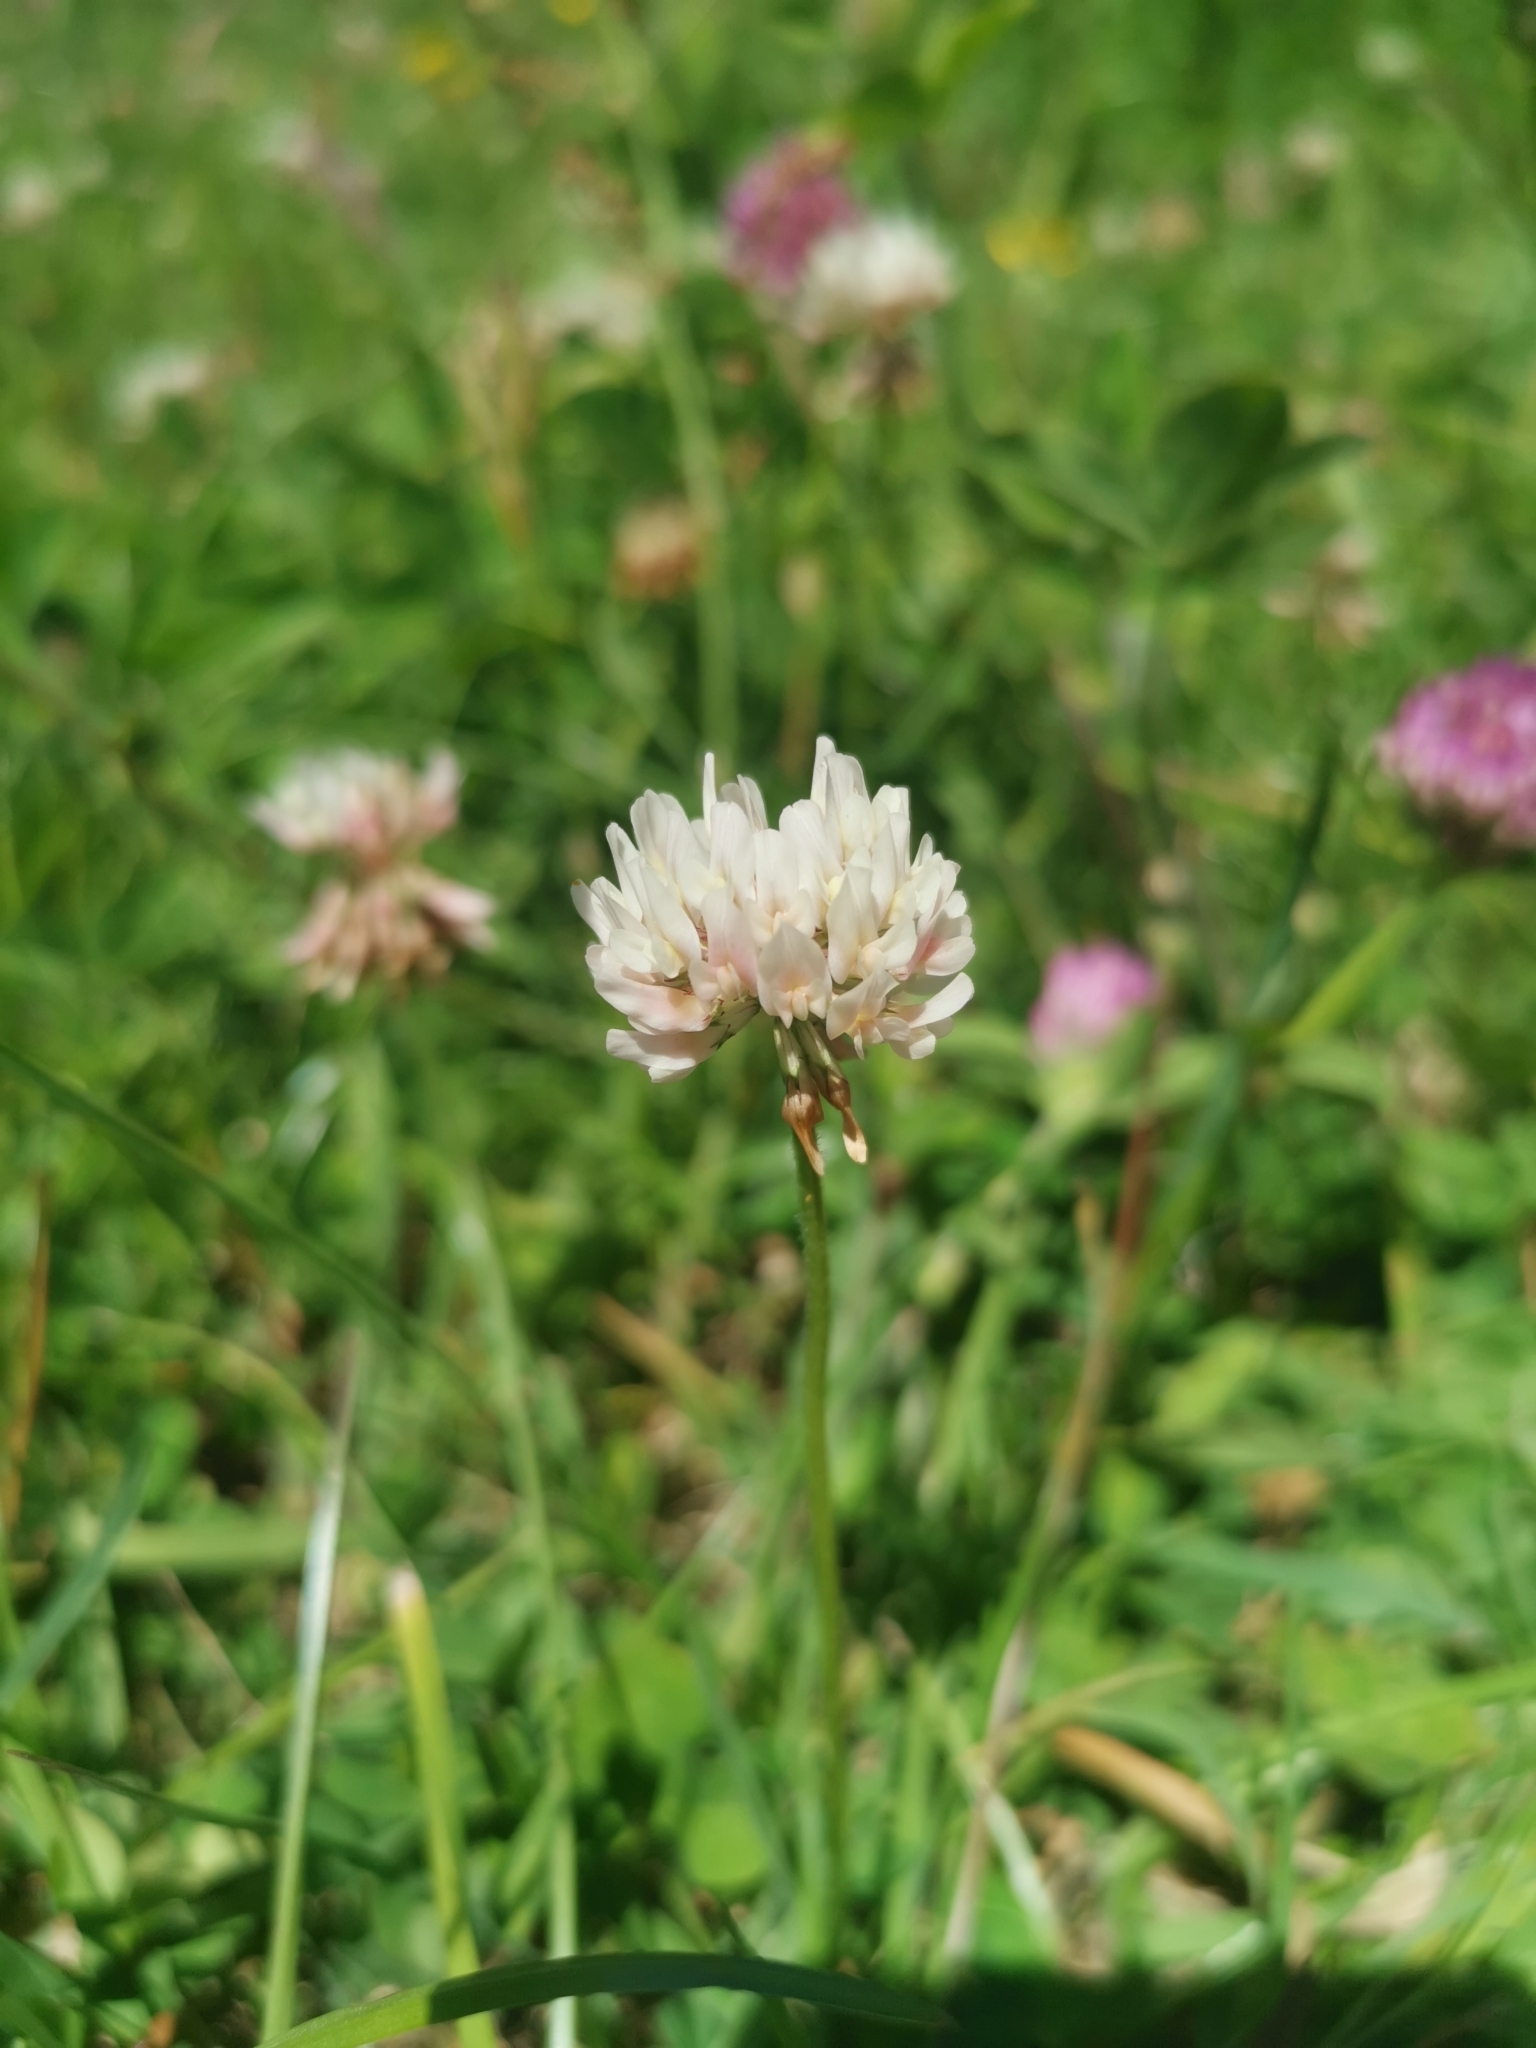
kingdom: Plantae
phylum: Tracheophyta
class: Magnoliopsida
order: Fabales
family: Fabaceae
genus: Trifolium
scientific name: Trifolium repens
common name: White clover
